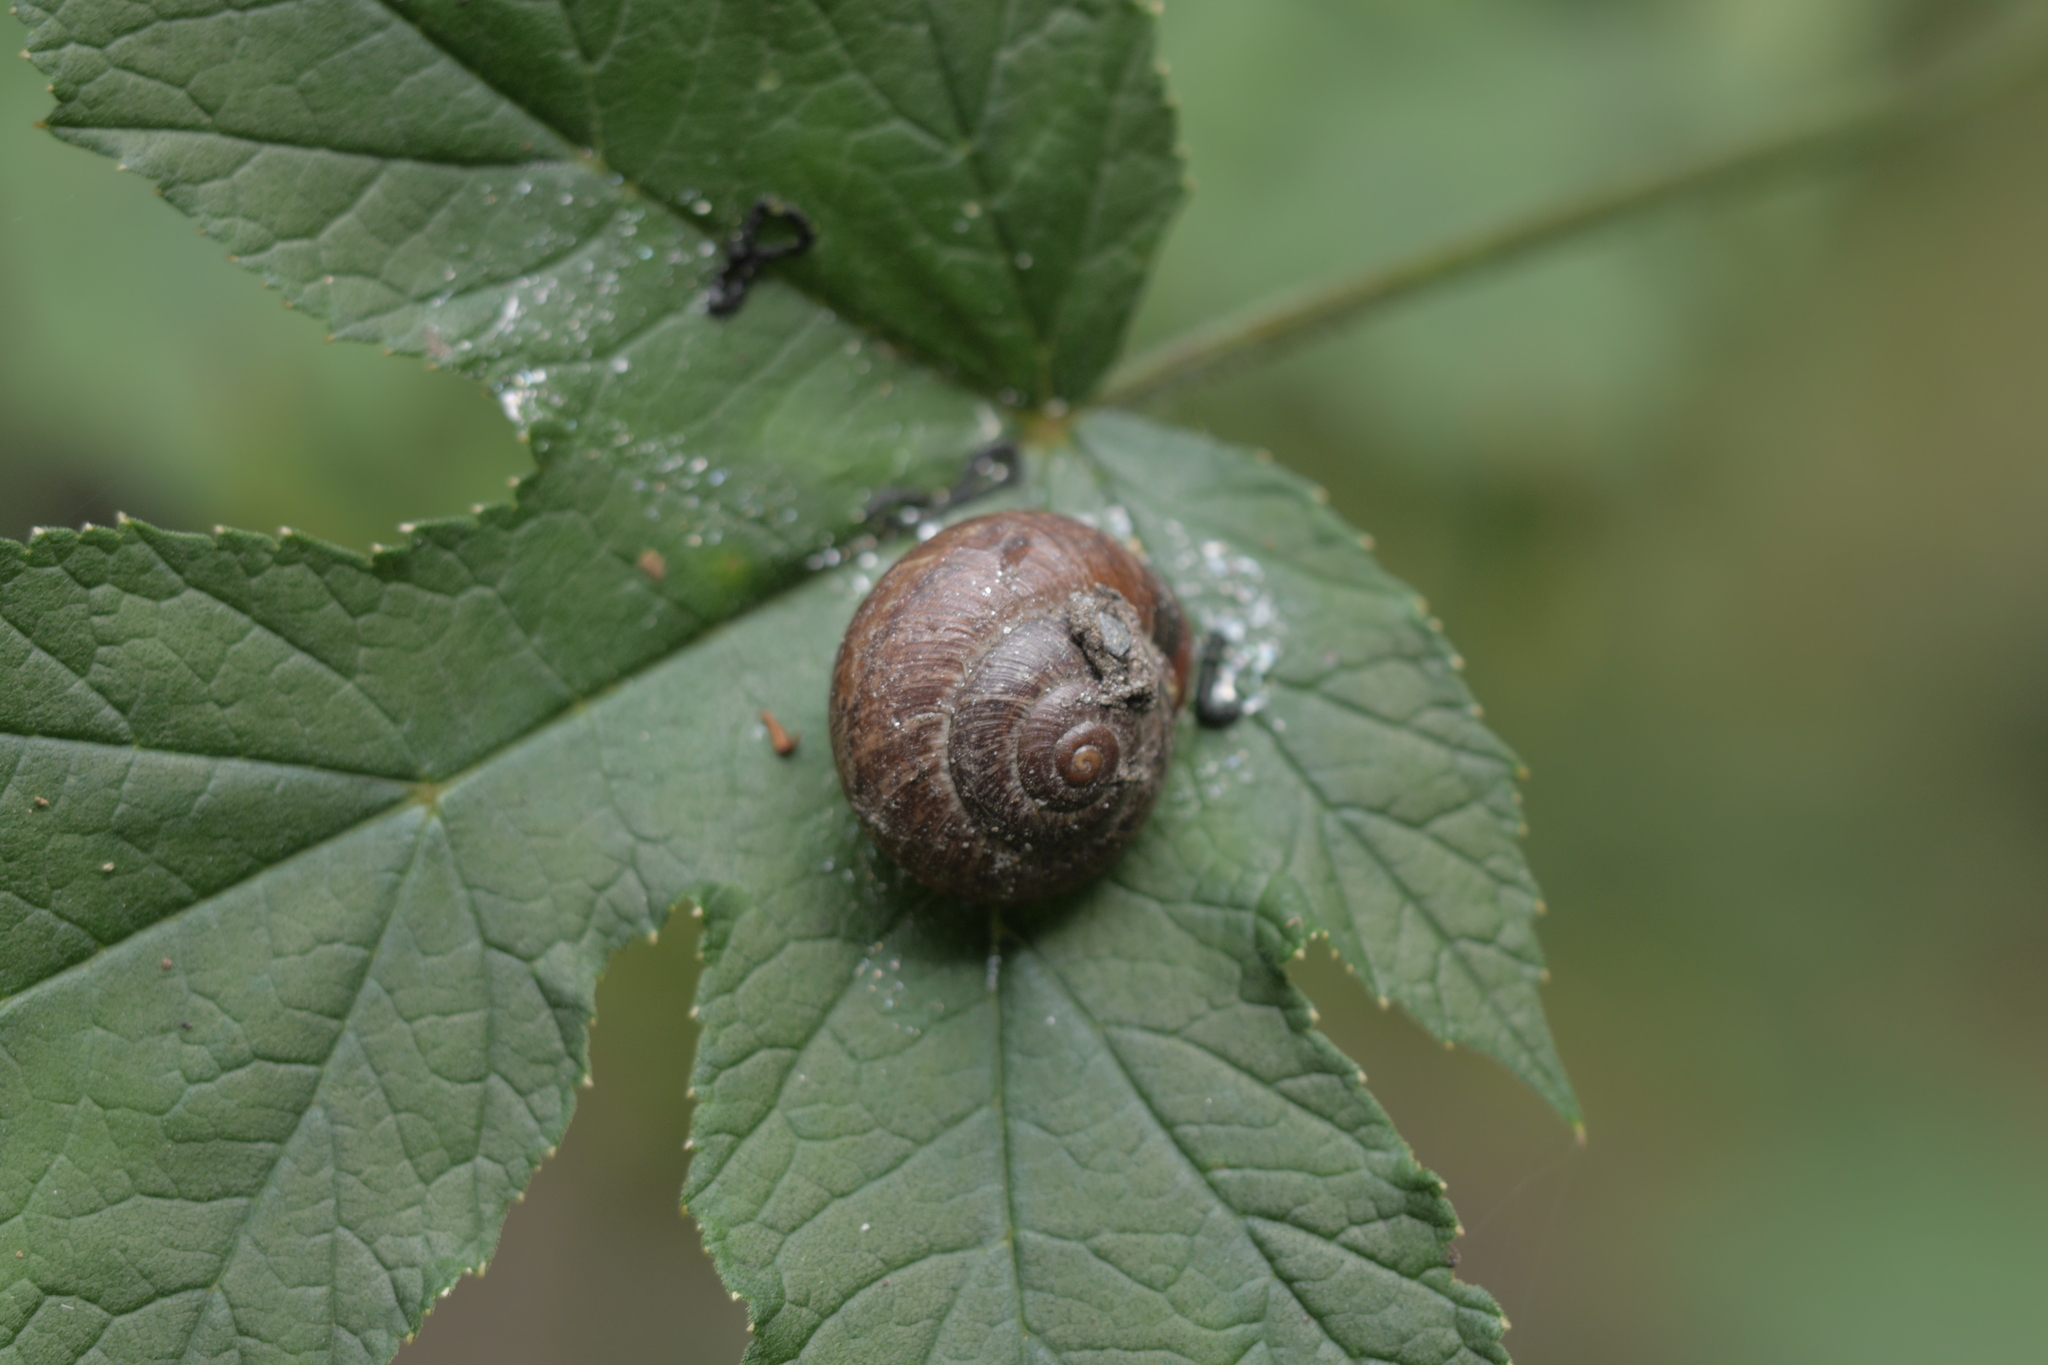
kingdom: Animalia
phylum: Mollusca
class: Gastropoda
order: Stylommatophora
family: Helicidae
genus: Arianta
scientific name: Arianta arbustorum
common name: Copse snail
